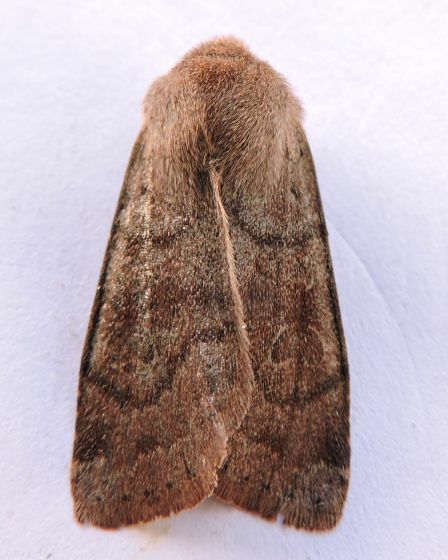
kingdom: Animalia
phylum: Arthropoda
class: Insecta
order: Lepidoptera
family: Noctuidae
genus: Orthosia
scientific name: Orthosia alurina
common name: Gray quaker
